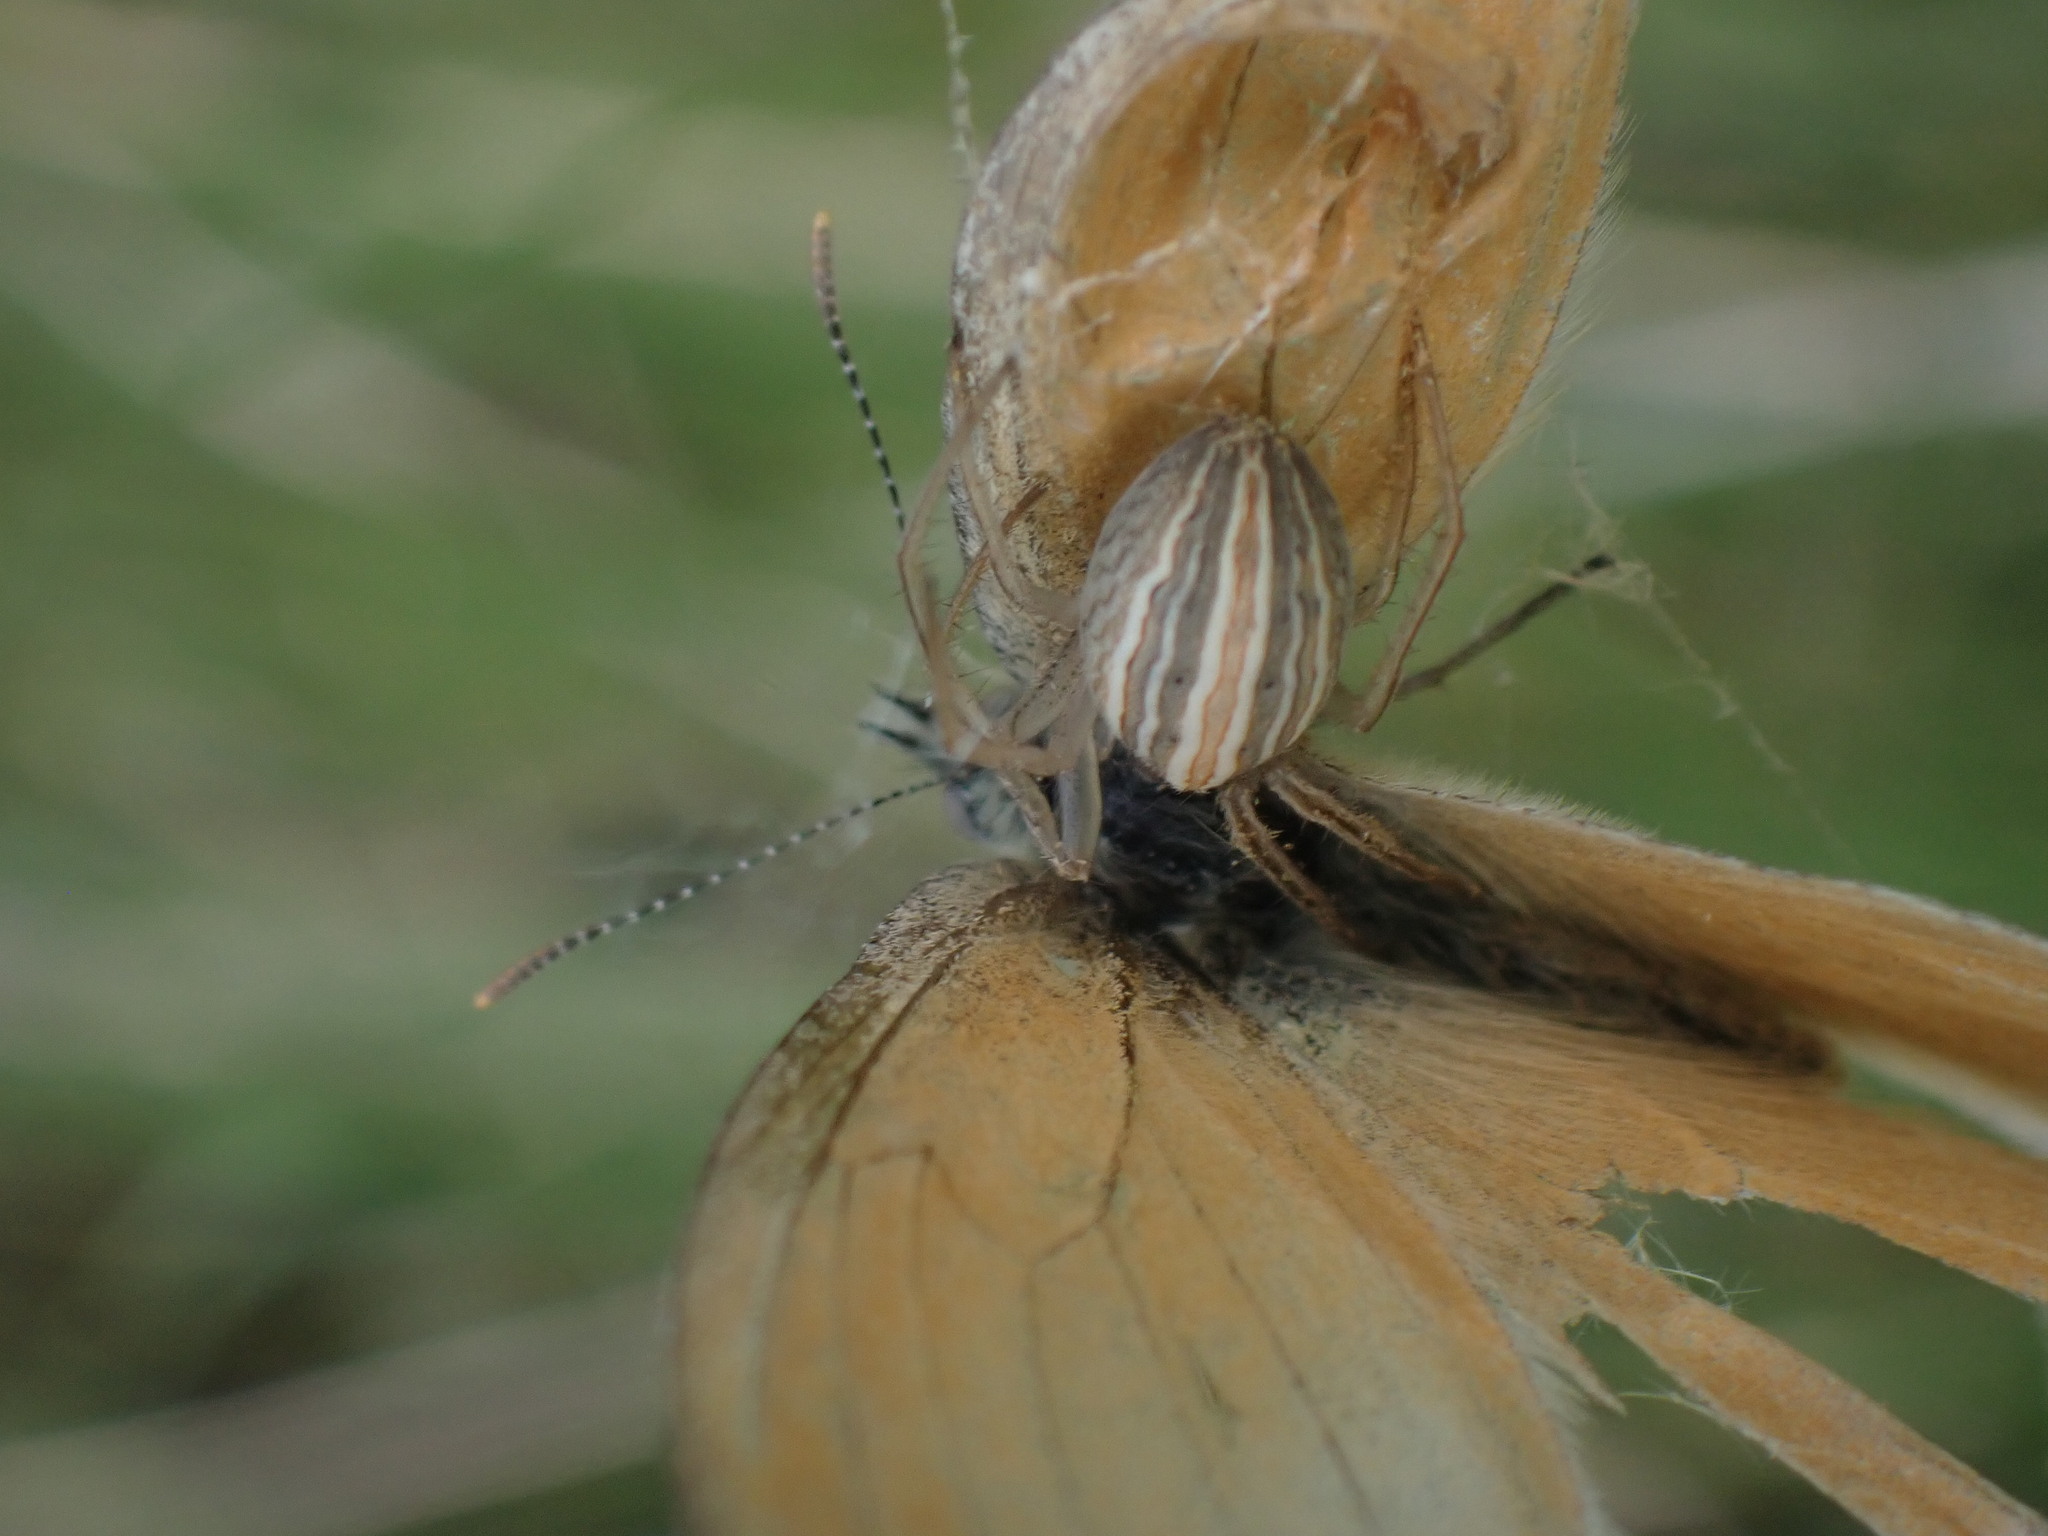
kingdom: Animalia
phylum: Arthropoda
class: Arachnida
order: Araneae
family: Araneidae
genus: Larinia
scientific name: Larinia borealis
